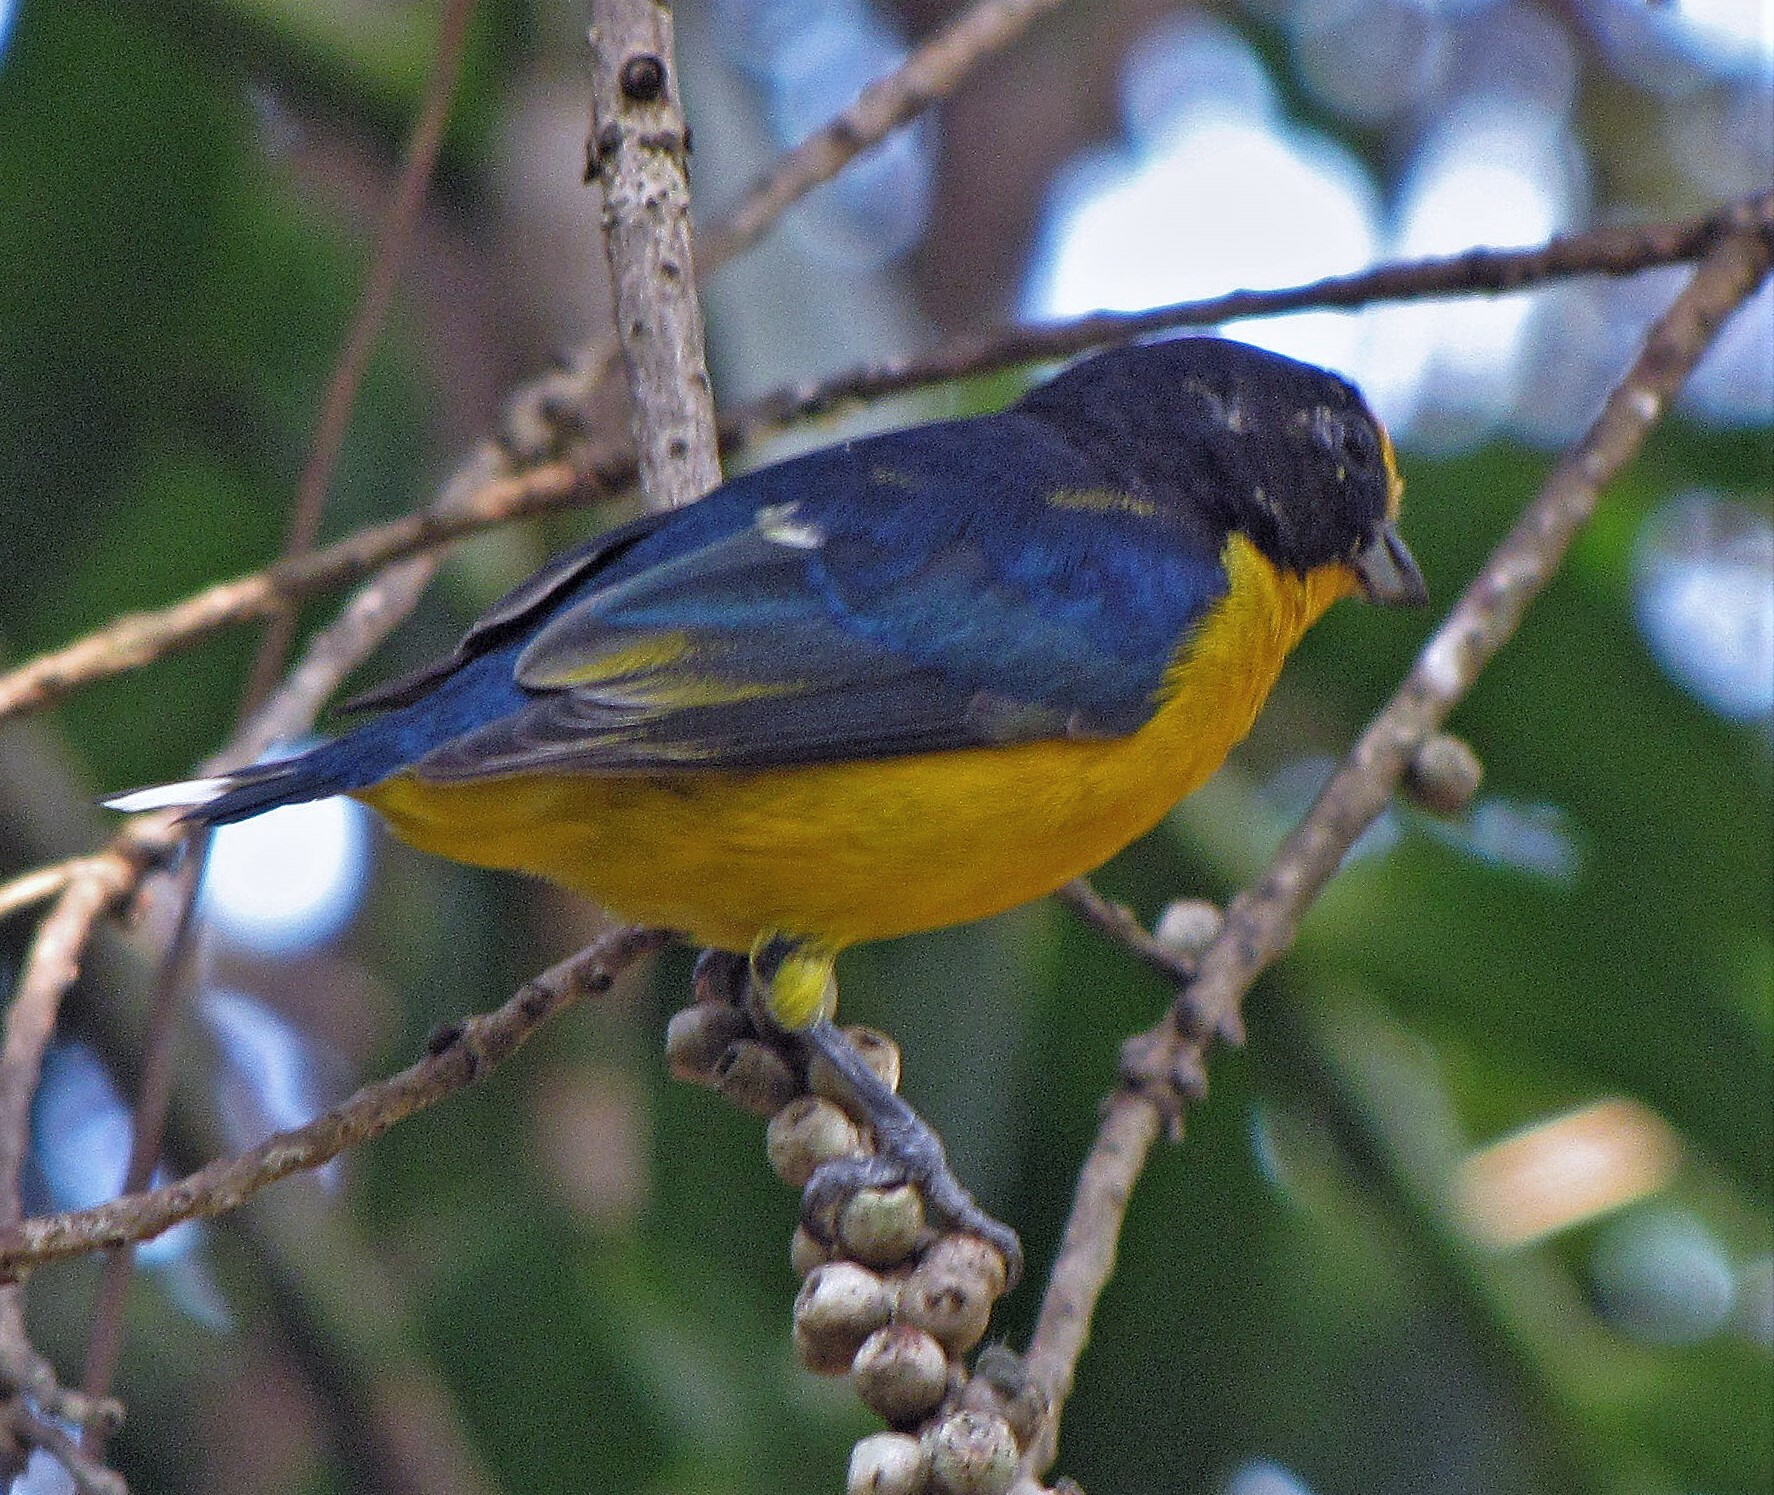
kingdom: Animalia
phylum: Chordata
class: Aves
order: Passeriformes
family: Fringillidae
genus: Euphonia
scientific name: Euphonia violacea
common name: Violaceous euphonia
